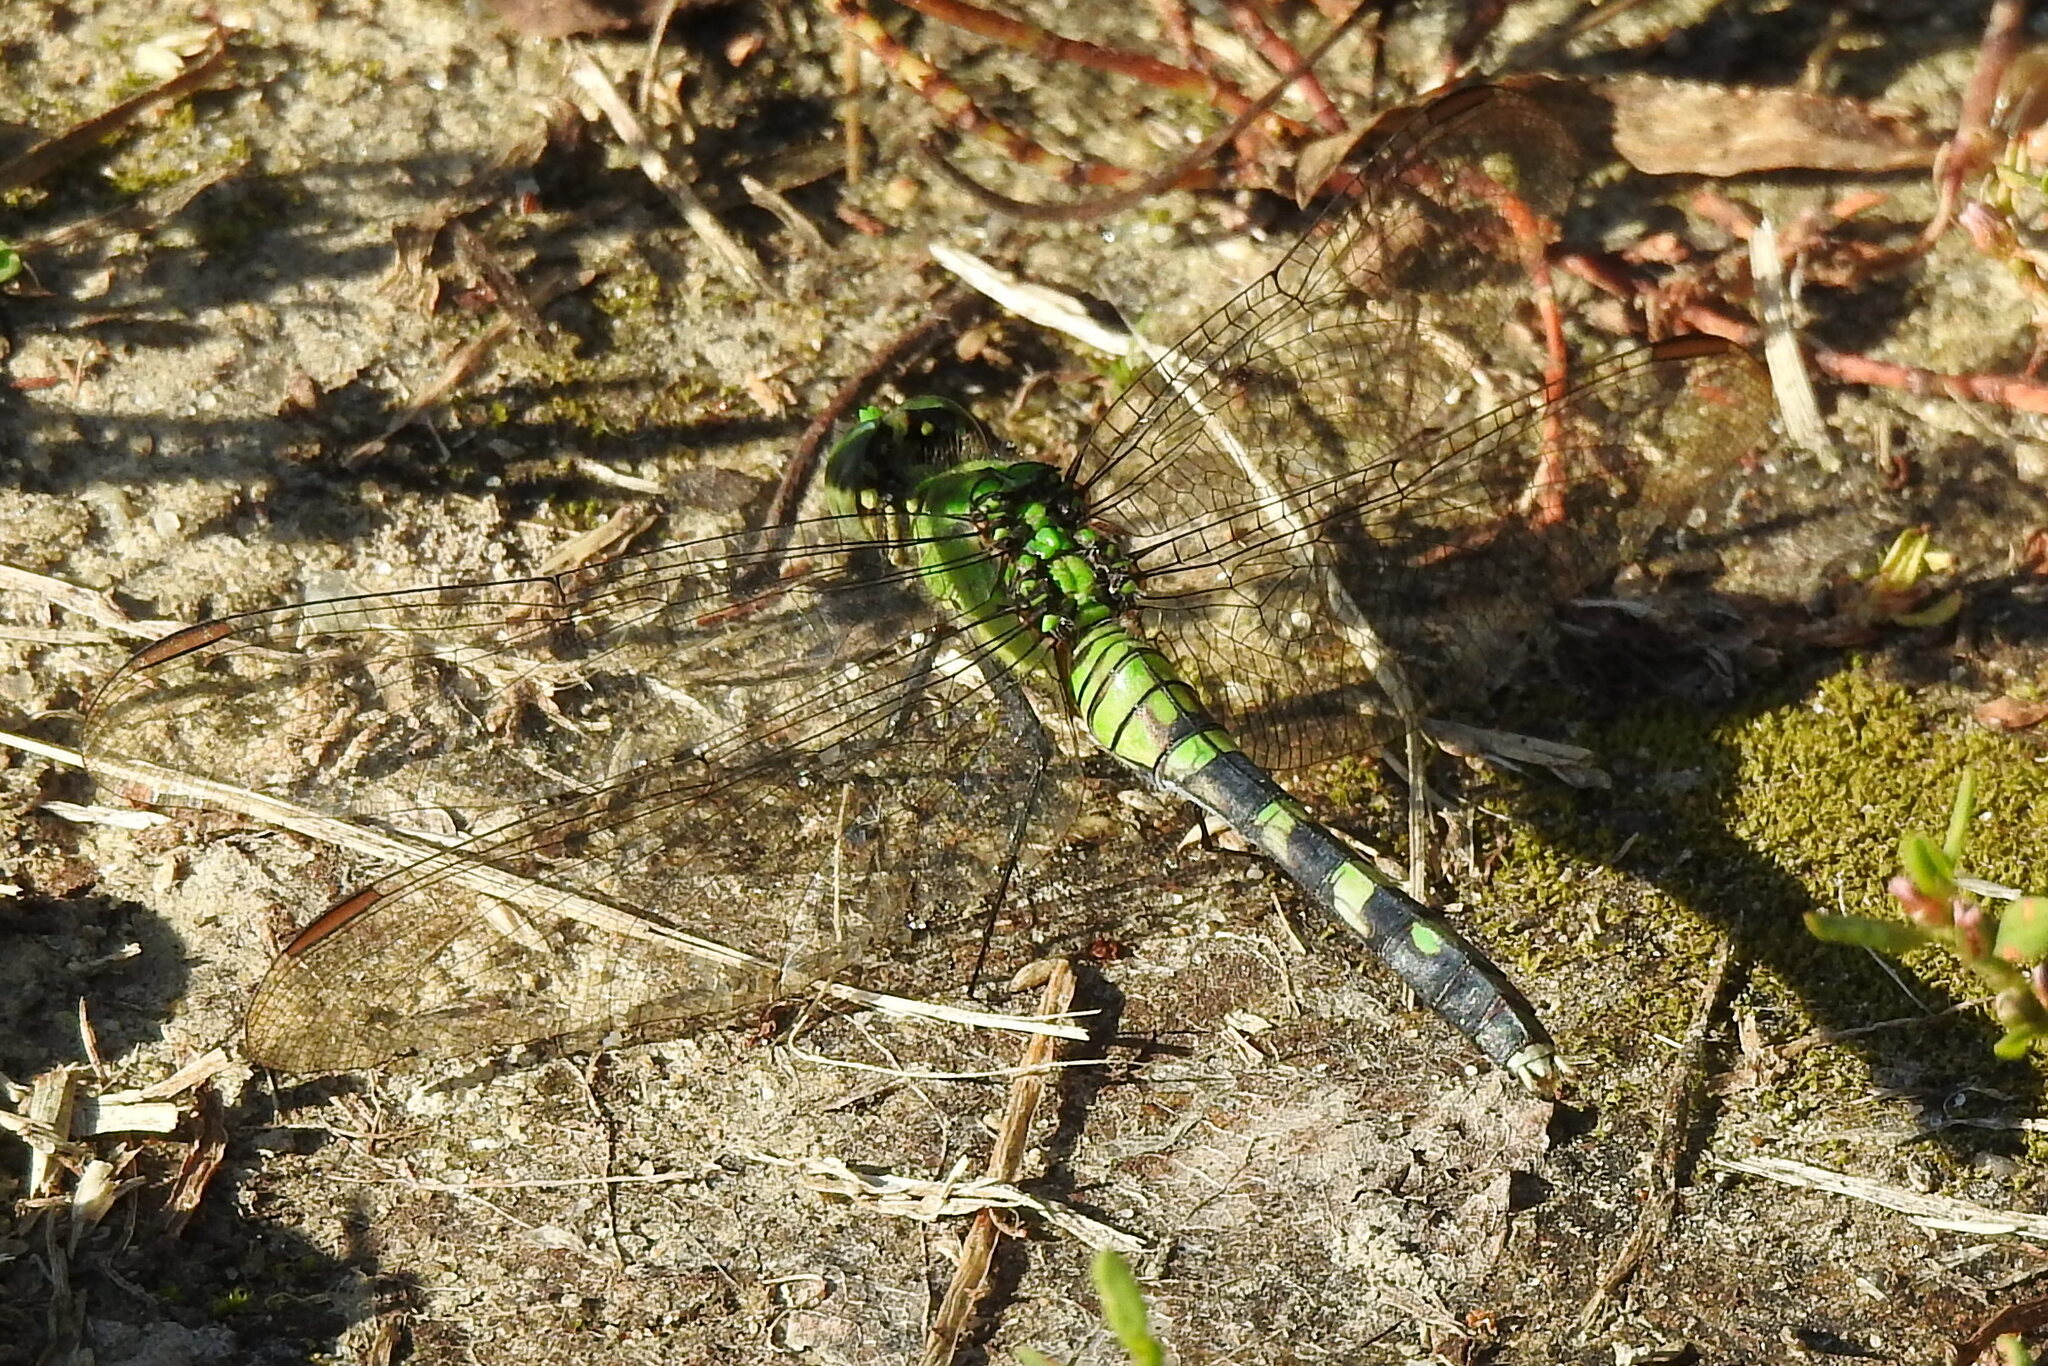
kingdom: Animalia
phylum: Arthropoda
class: Insecta
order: Odonata
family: Libellulidae
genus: Erythemis
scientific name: Erythemis simplicicollis
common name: Eastern pondhawk
